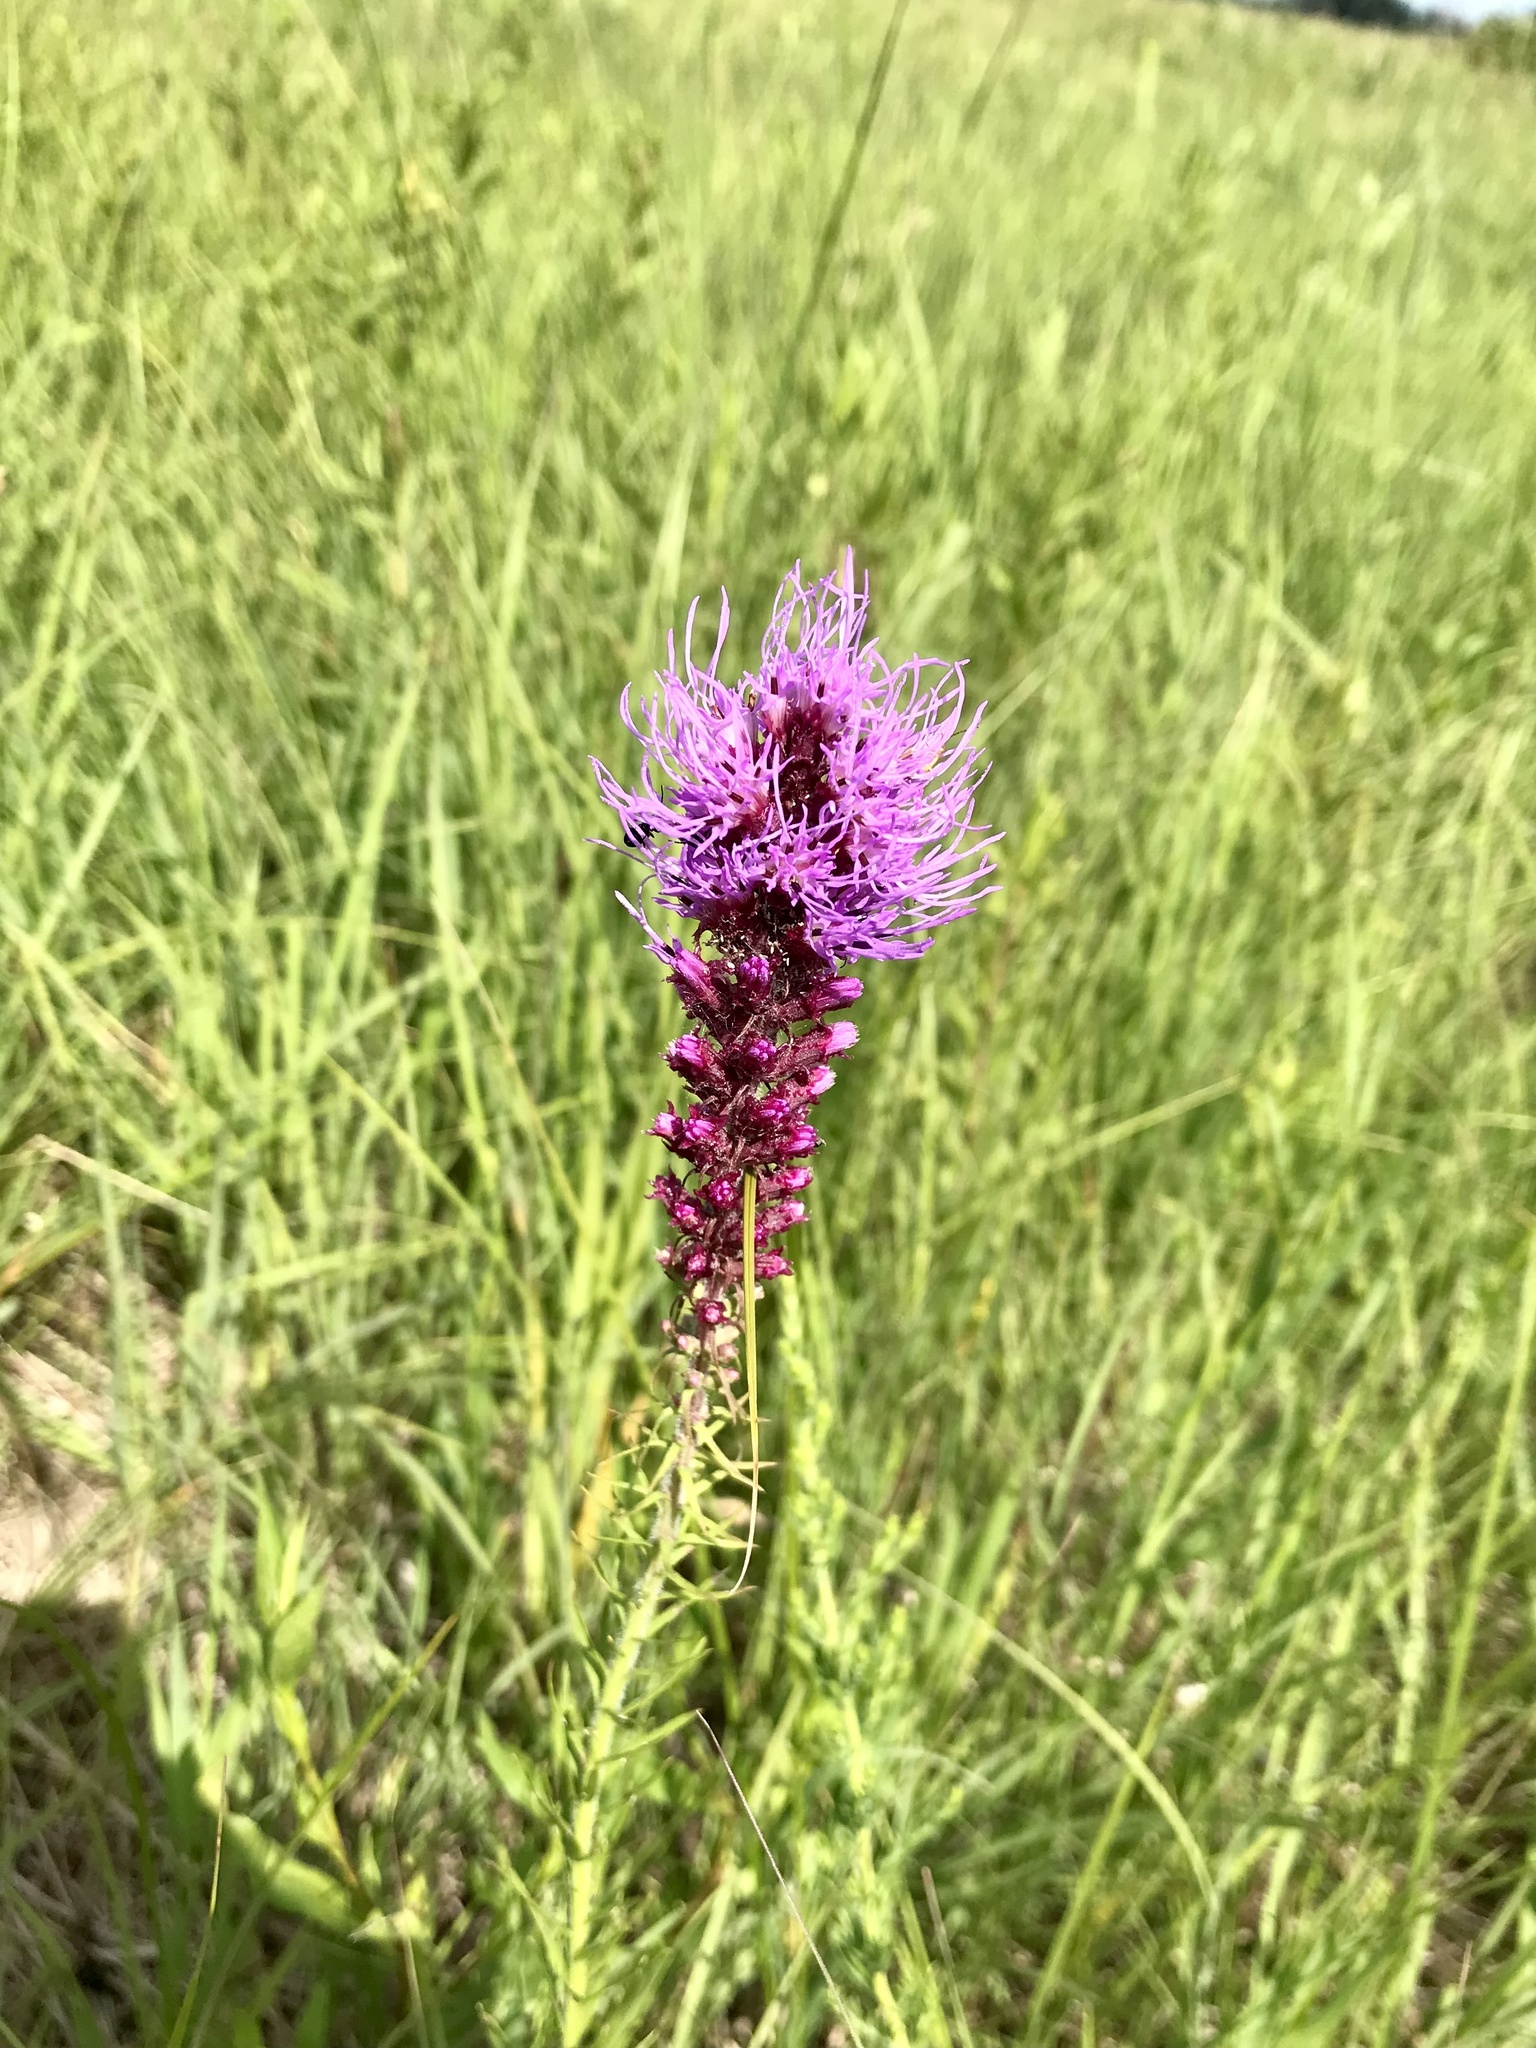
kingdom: Plantae
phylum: Tracheophyta
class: Magnoliopsida
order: Asterales
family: Asteraceae
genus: Liatris
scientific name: Liatris pycnostachya
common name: Cattail gayfeather
